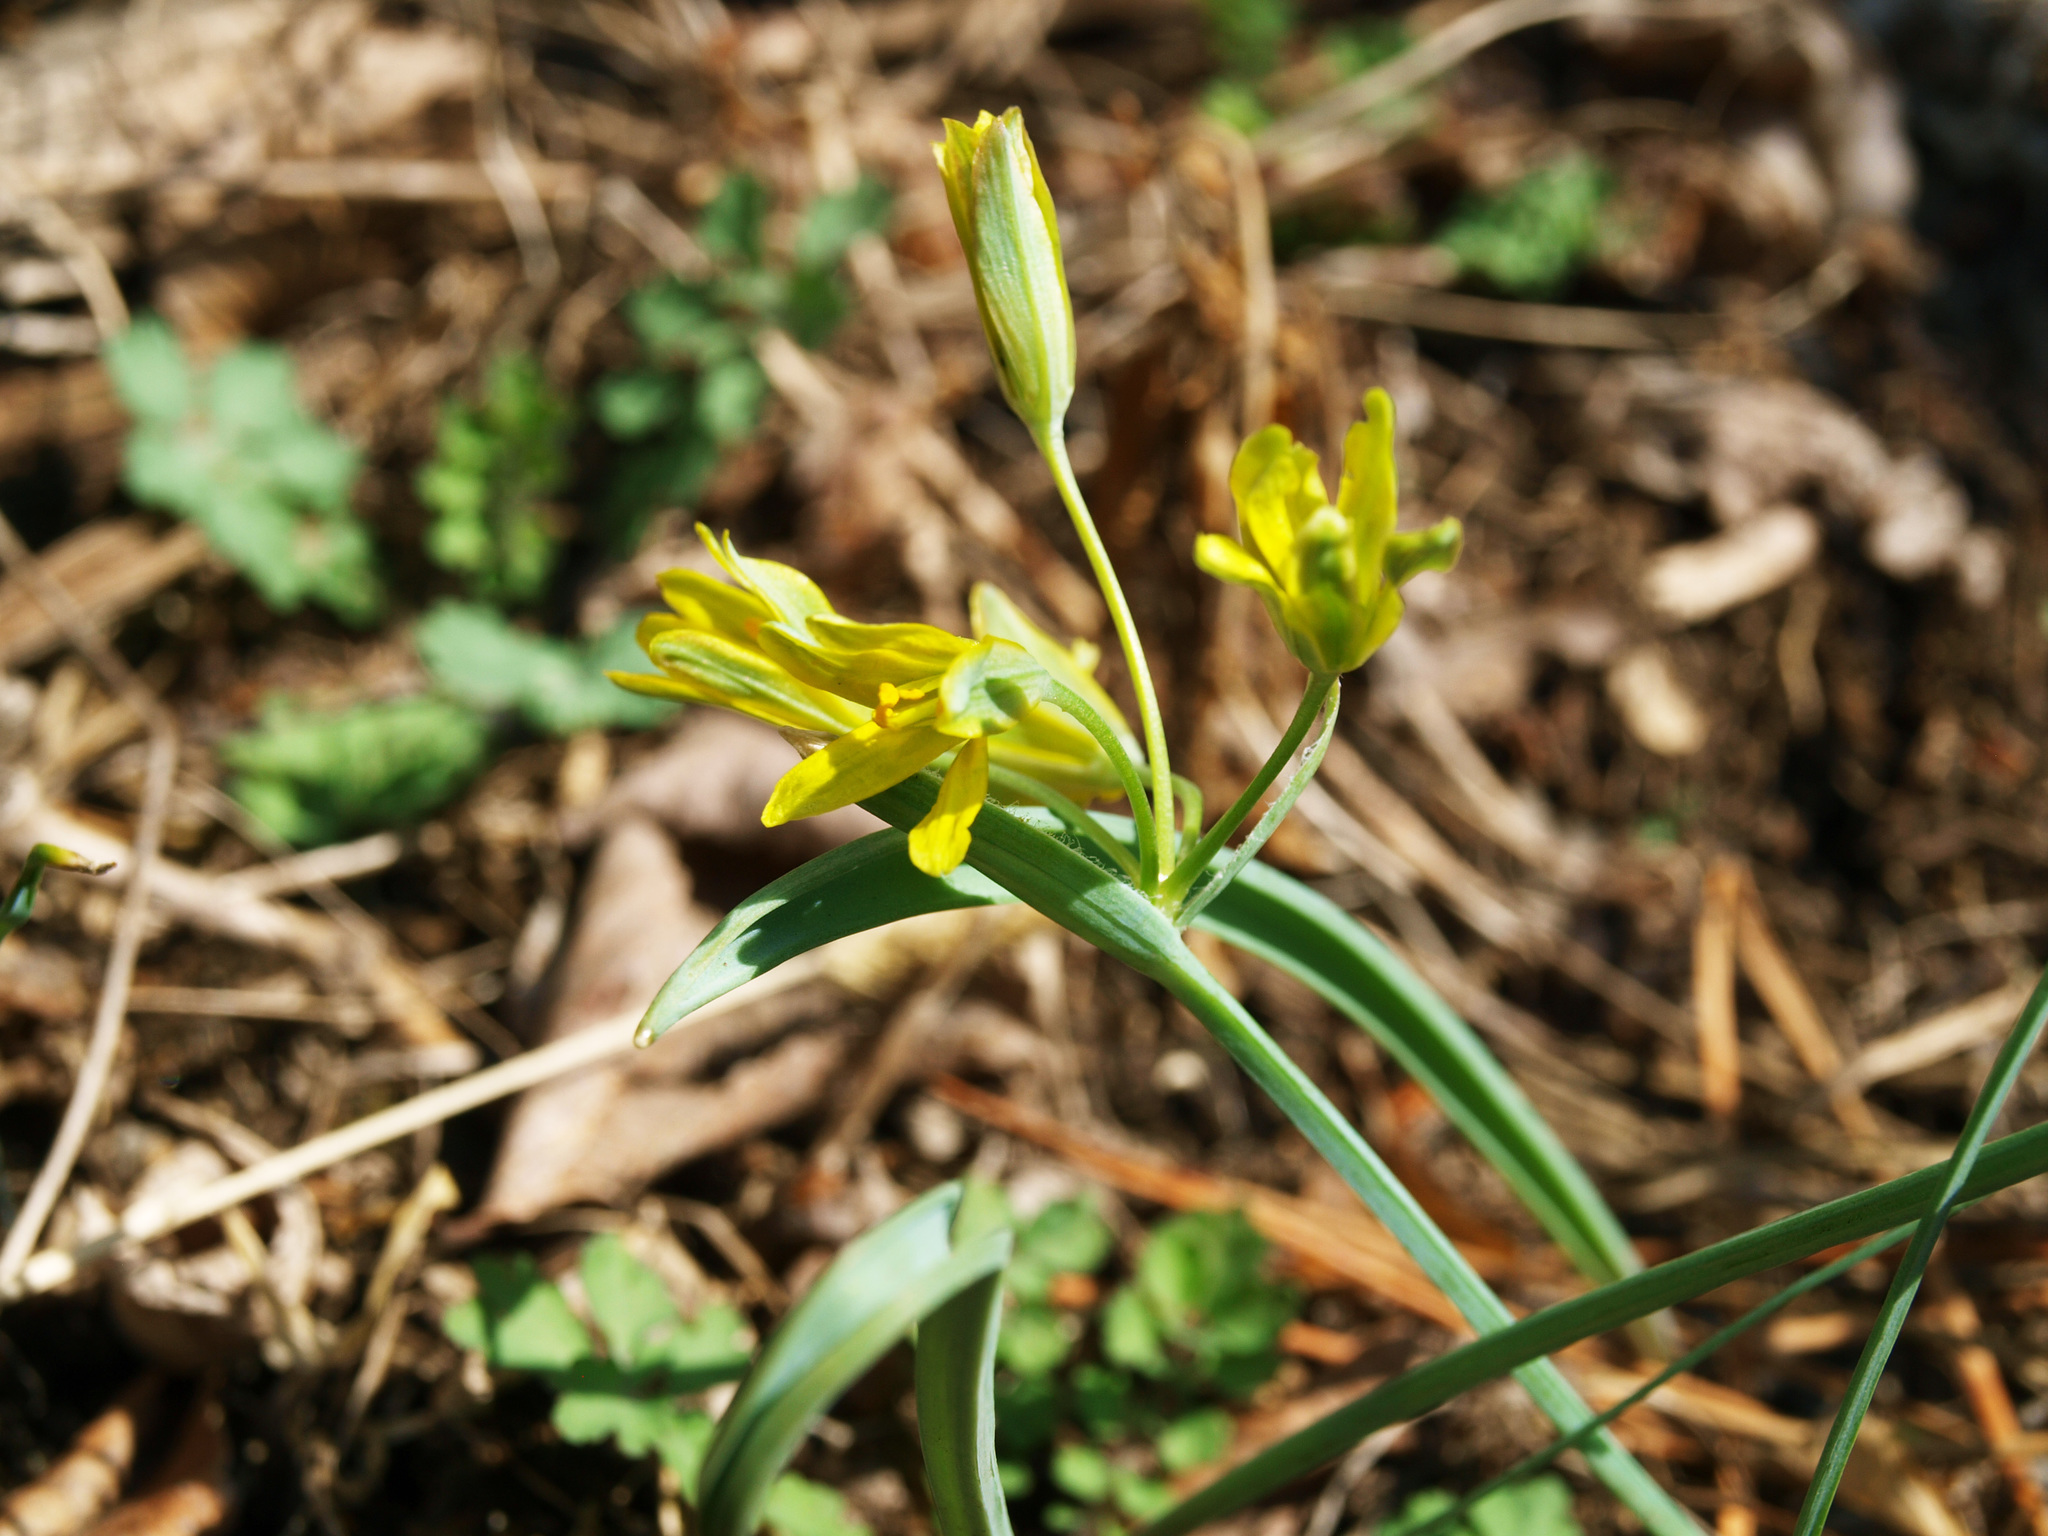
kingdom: Plantae
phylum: Tracheophyta
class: Liliopsida
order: Liliales
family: Liliaceae
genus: Gagea
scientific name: Gagea nakaiana
